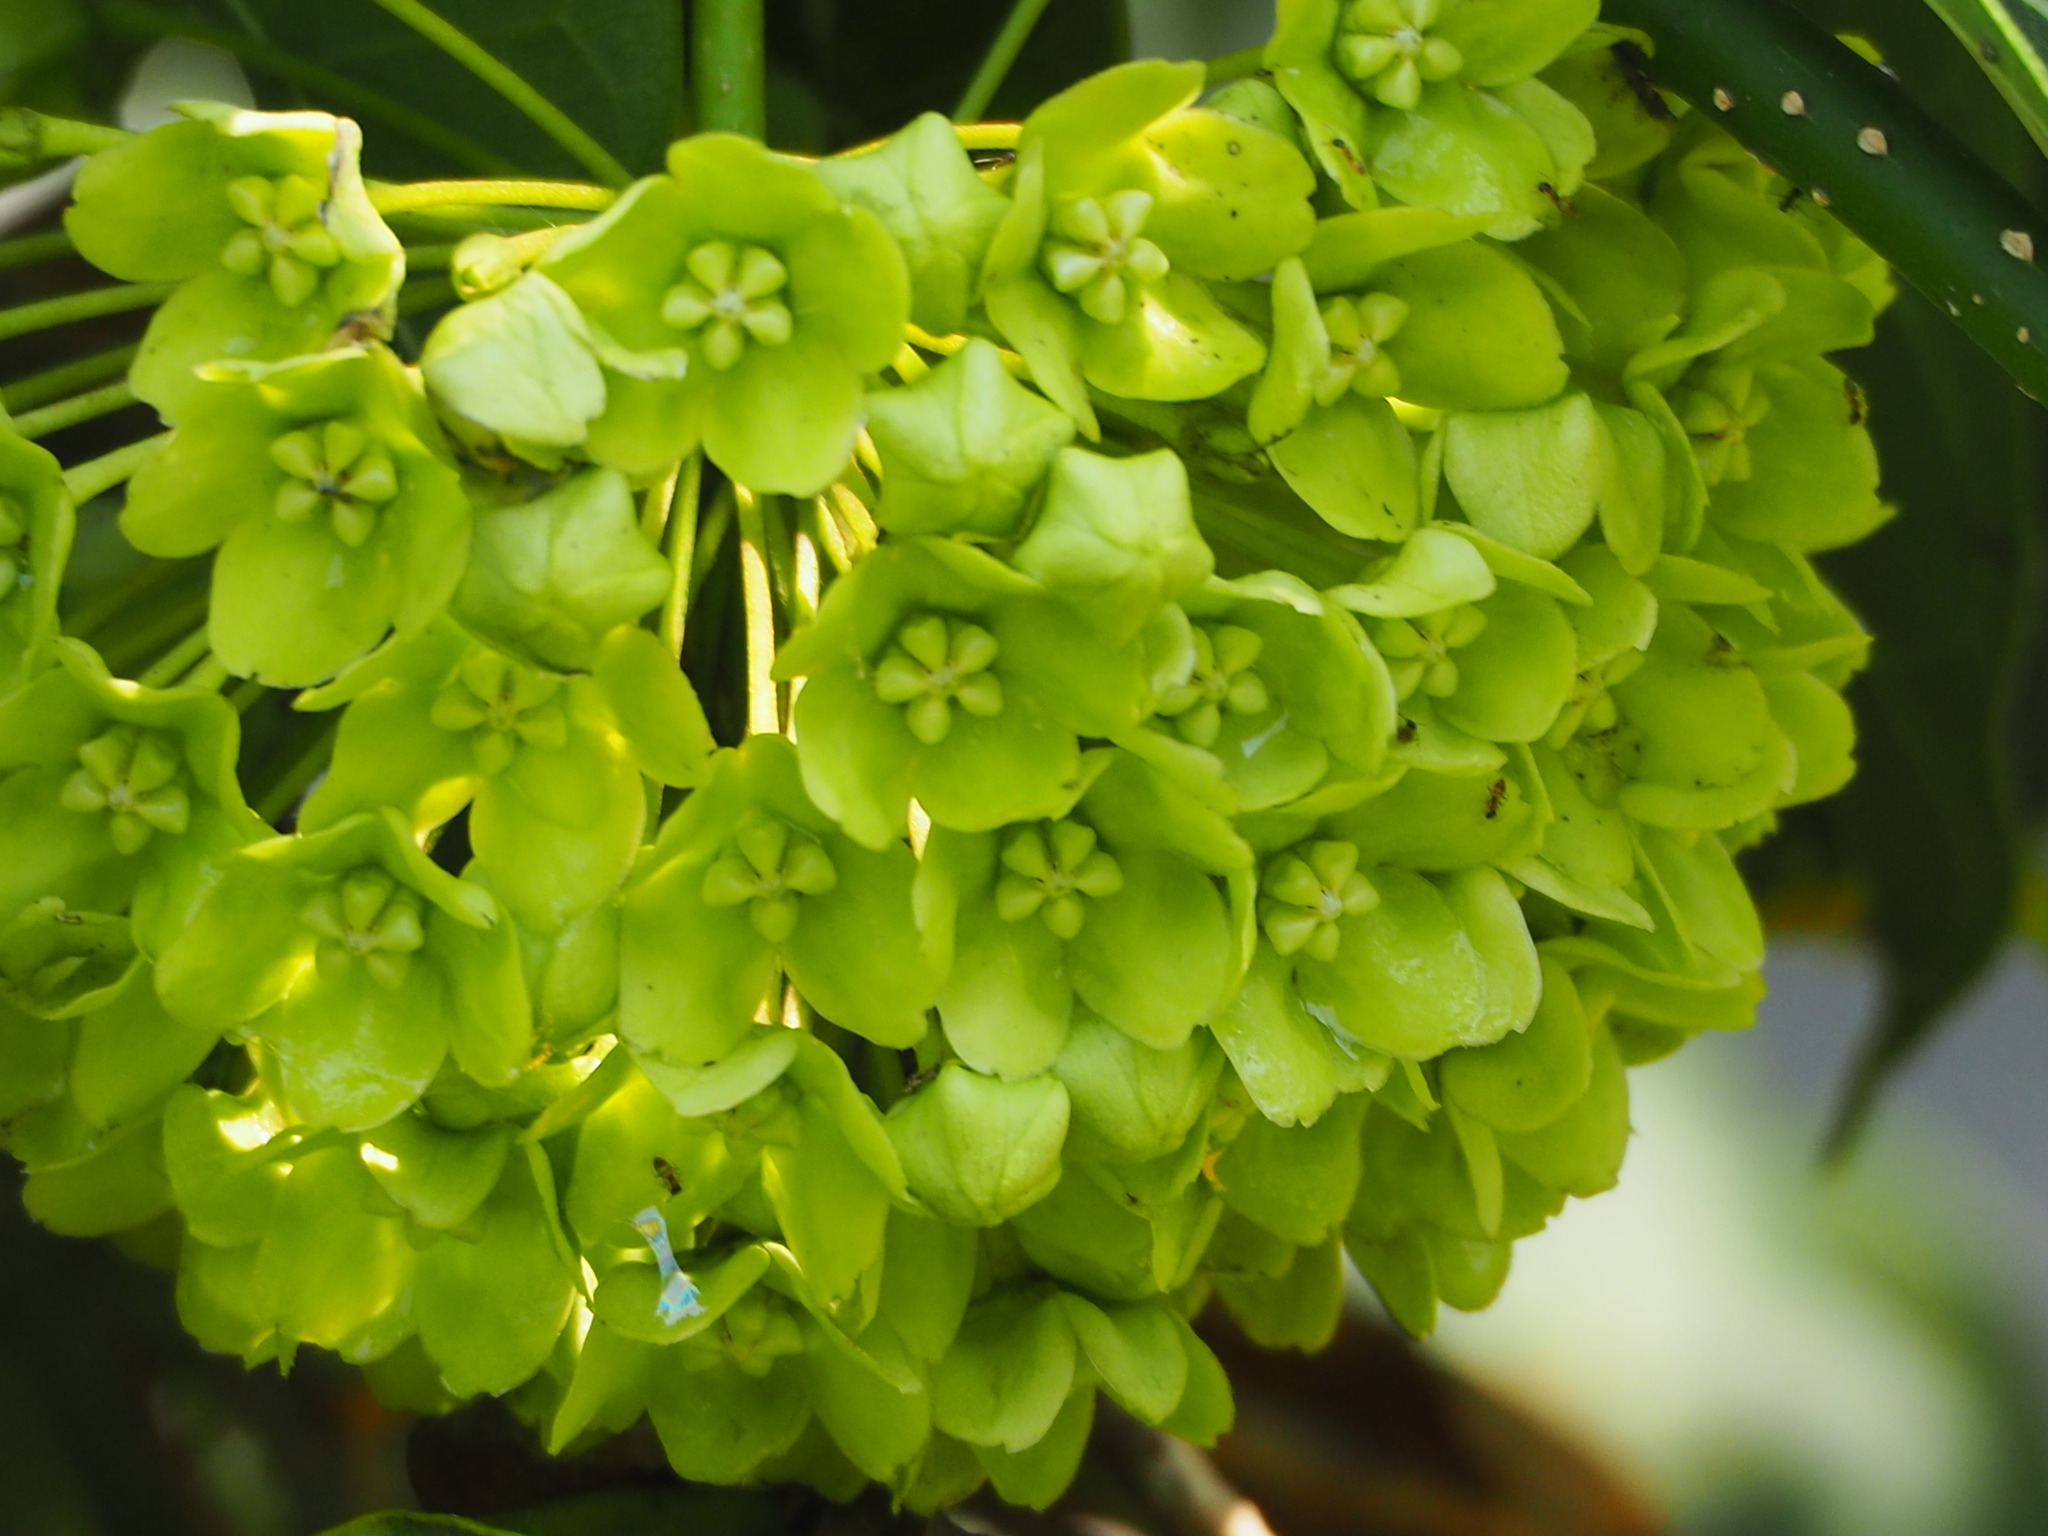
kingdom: Plantae
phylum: Tracheophyta
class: Magnoliopsida
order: Gentianales
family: Apocynaceae
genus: Stephanotis
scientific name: Stephanotis volubilis
